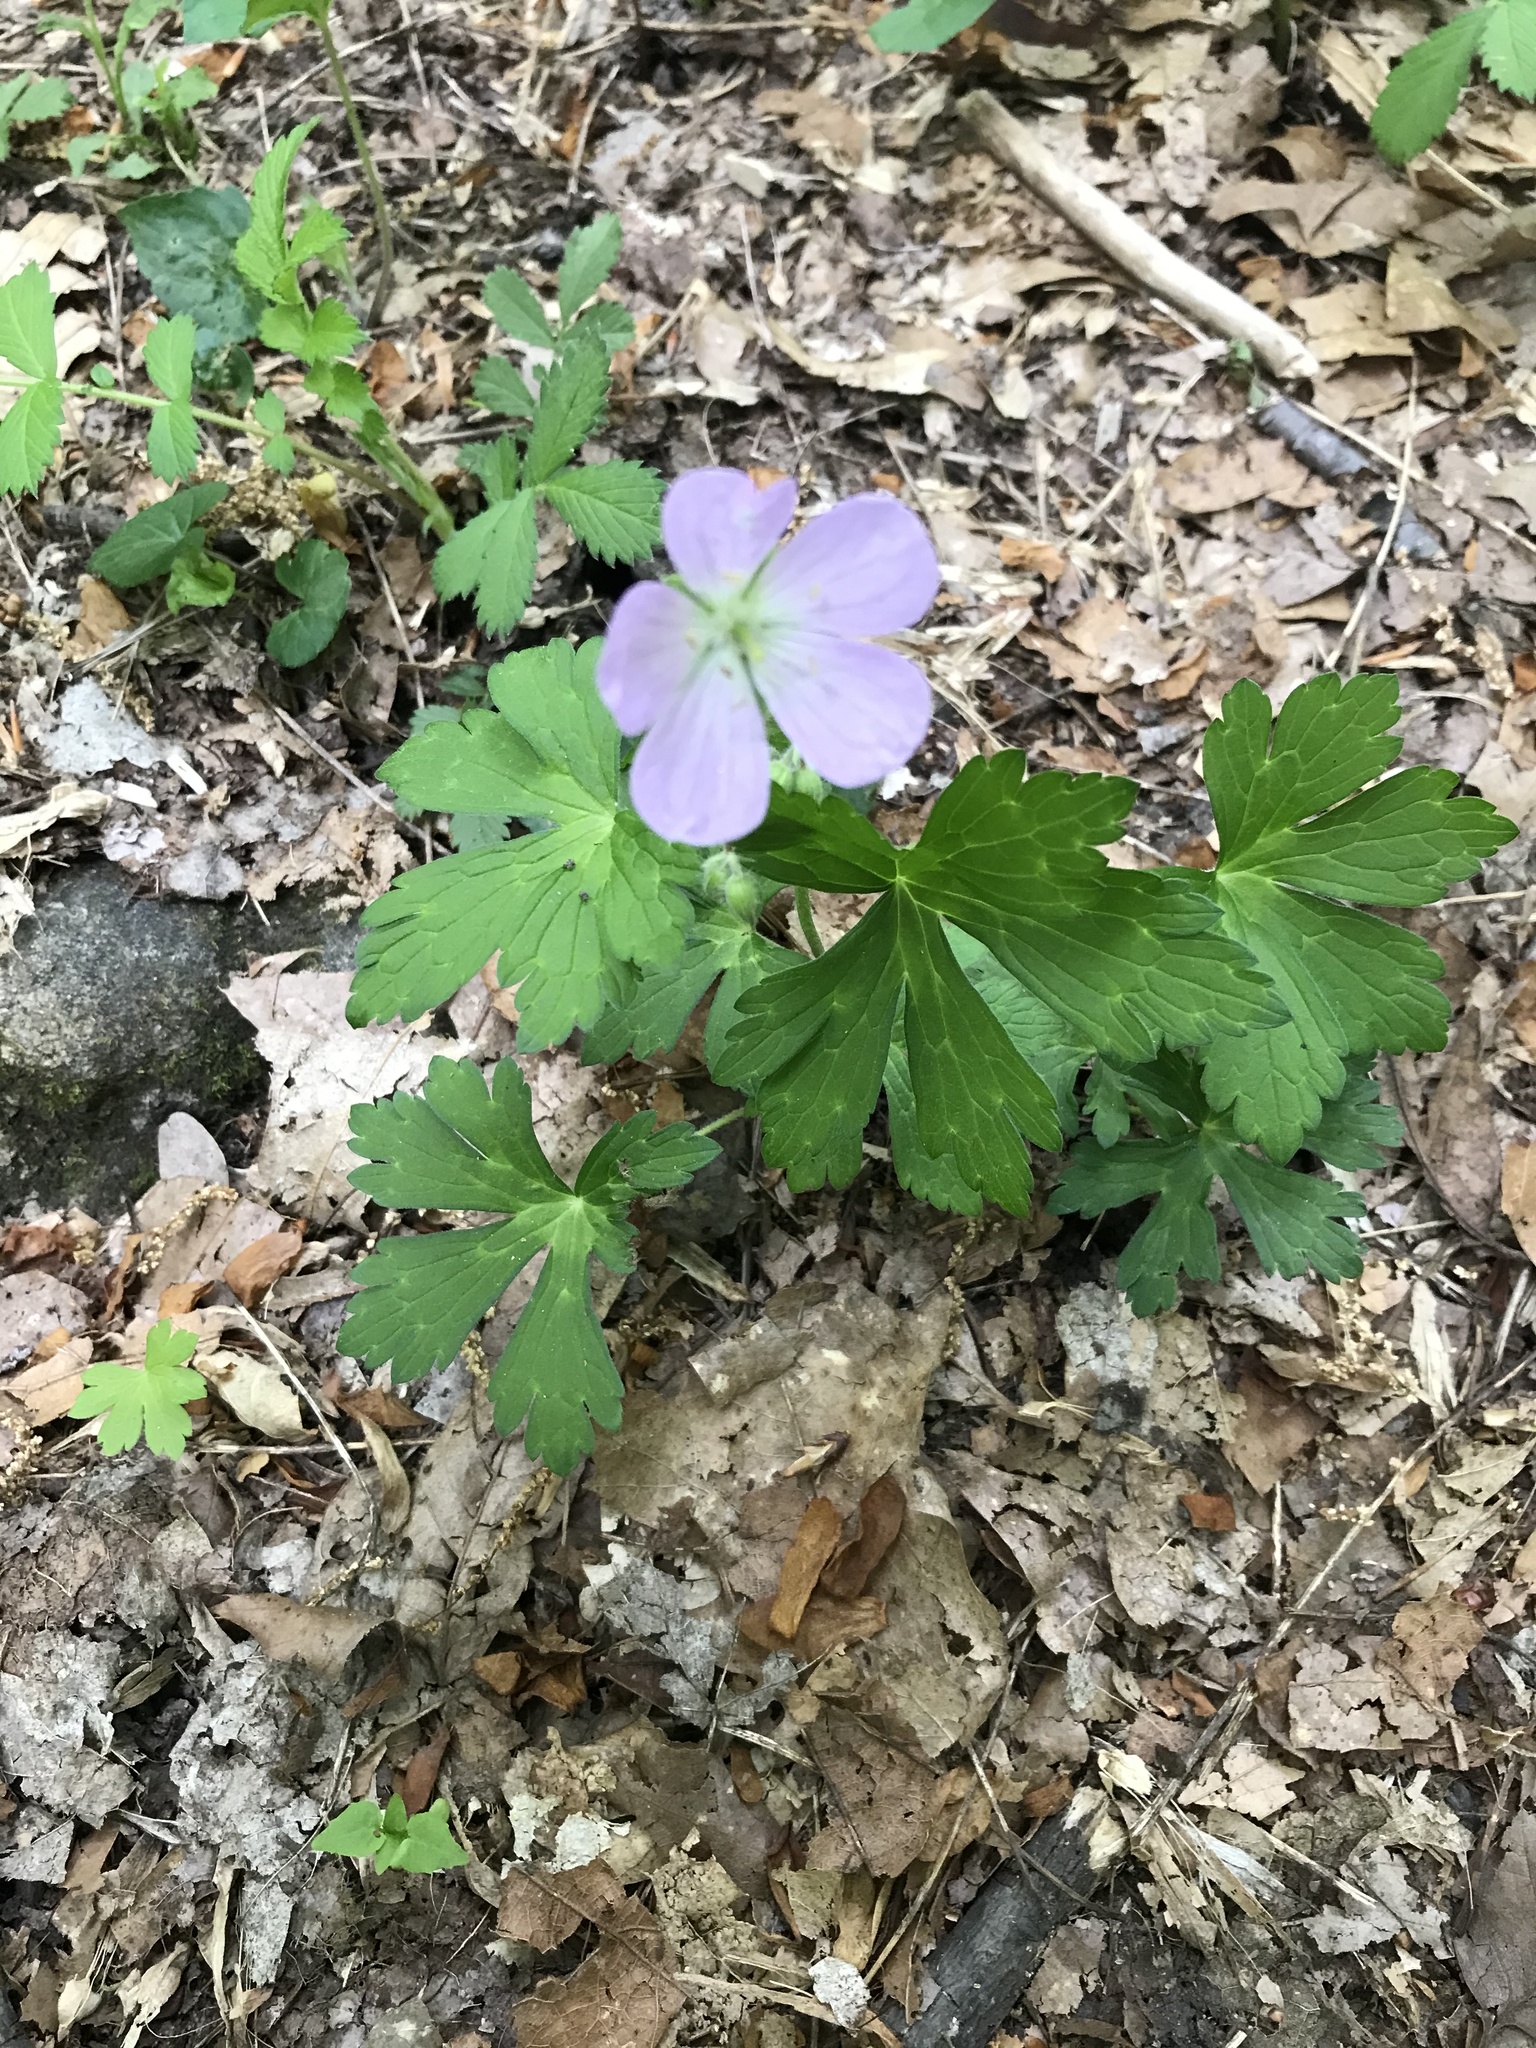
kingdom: Plantae
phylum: Tracheophyta
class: Magnoliopsida
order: Geraniales
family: Geraniaceae
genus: Geranium
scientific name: Geranium maculatum
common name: Spotted geranium
